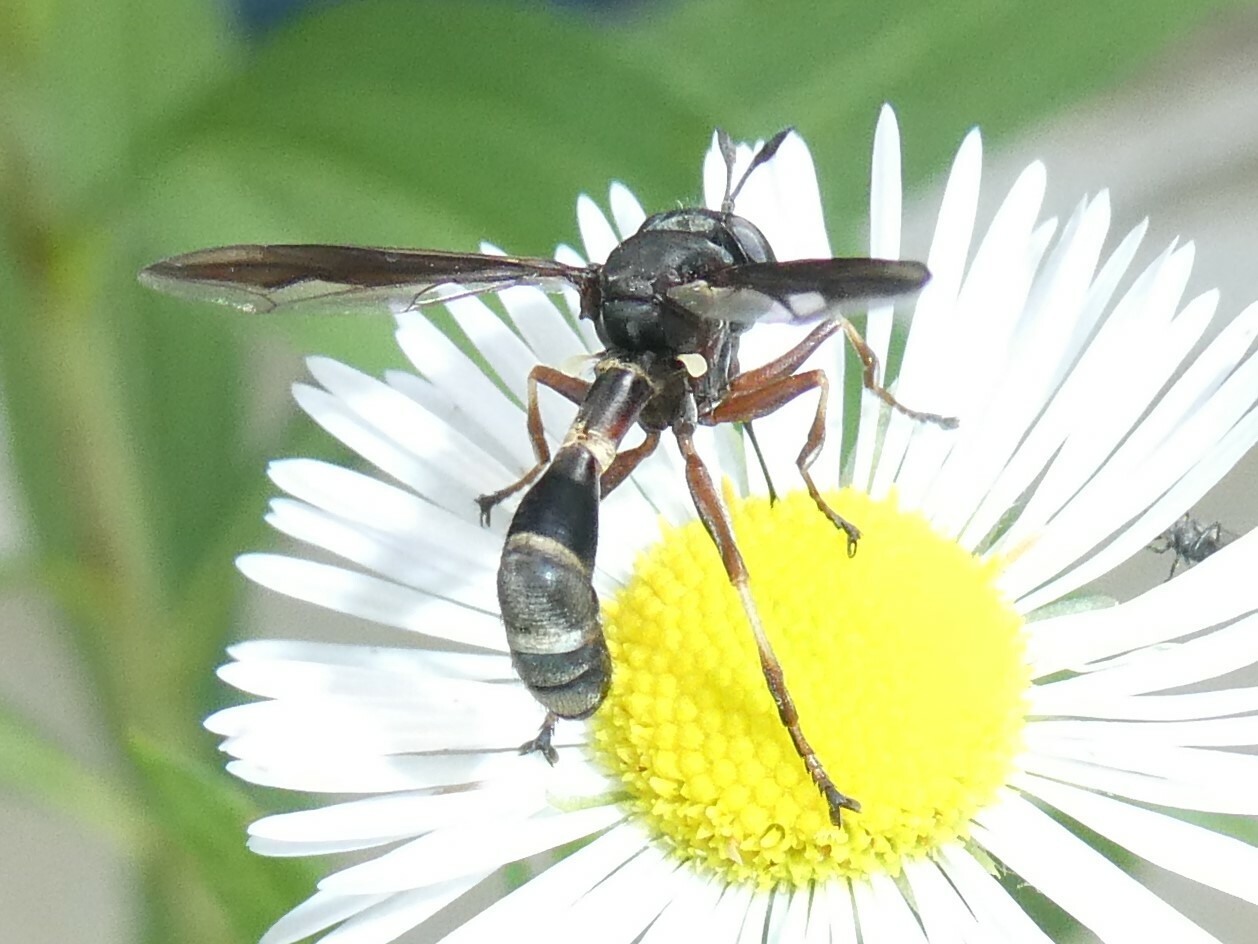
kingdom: Animalia
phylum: Arthropoda
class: Insecta
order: Diptera
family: Conopidae
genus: Physocephala
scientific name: Physocephala furcillata
